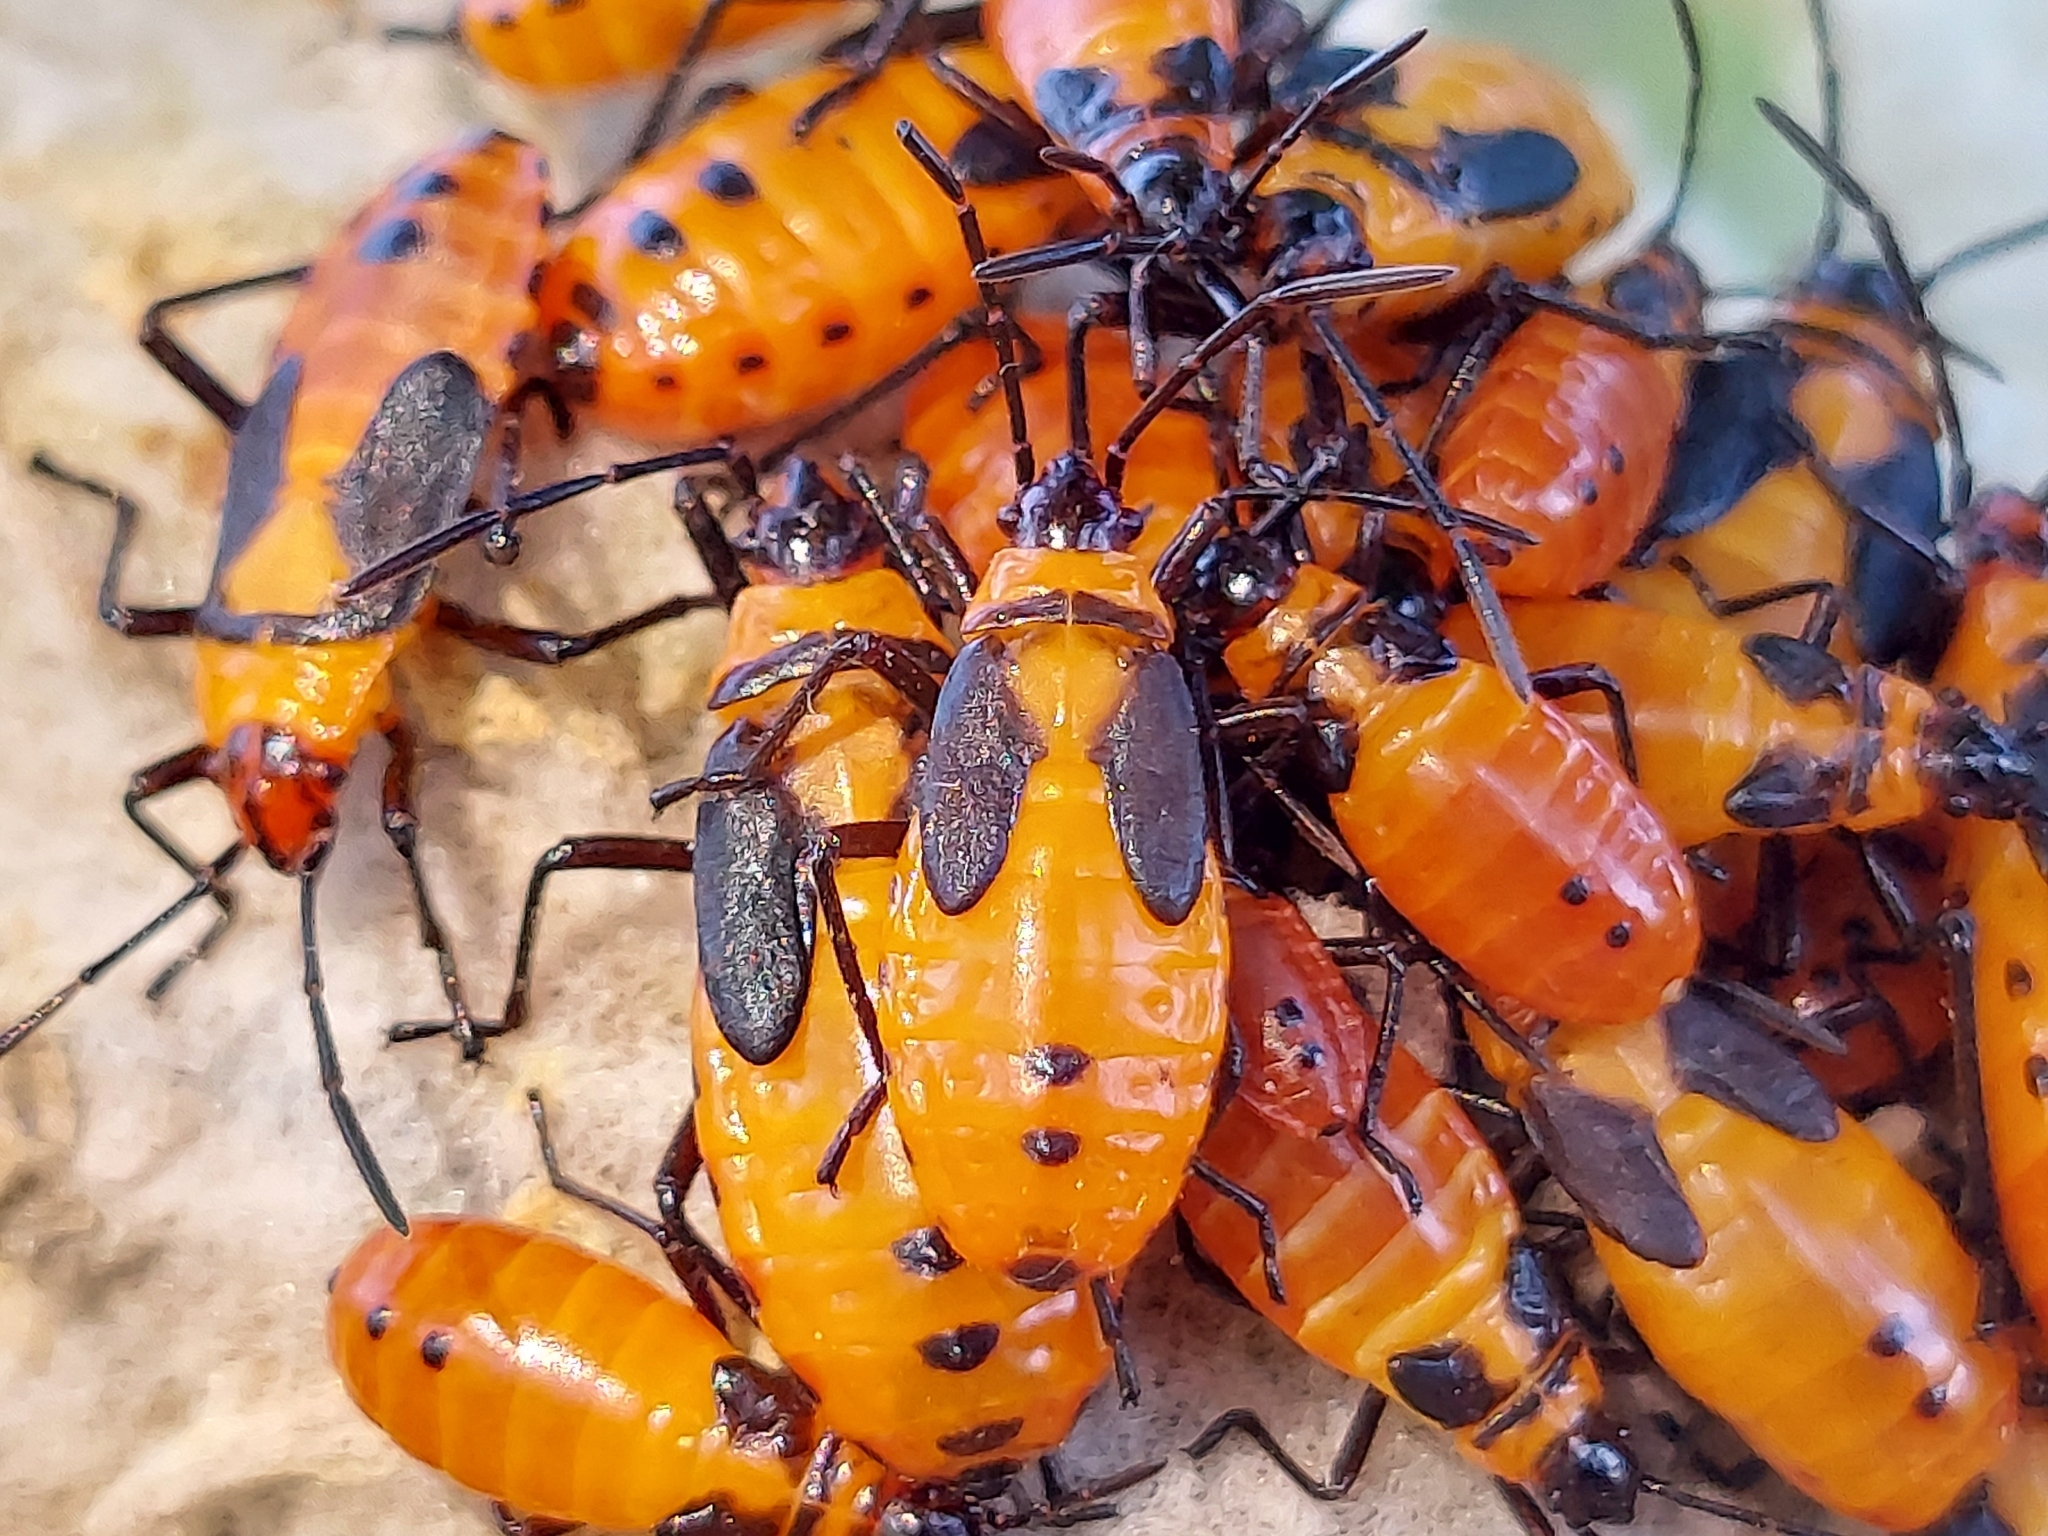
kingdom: Animalia
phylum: Arthropoda
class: Insecta
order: Hemiptera
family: Lygaeidae
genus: Oncopeltus
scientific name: Oncopeltus fasciatus
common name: Large milkweed bug
